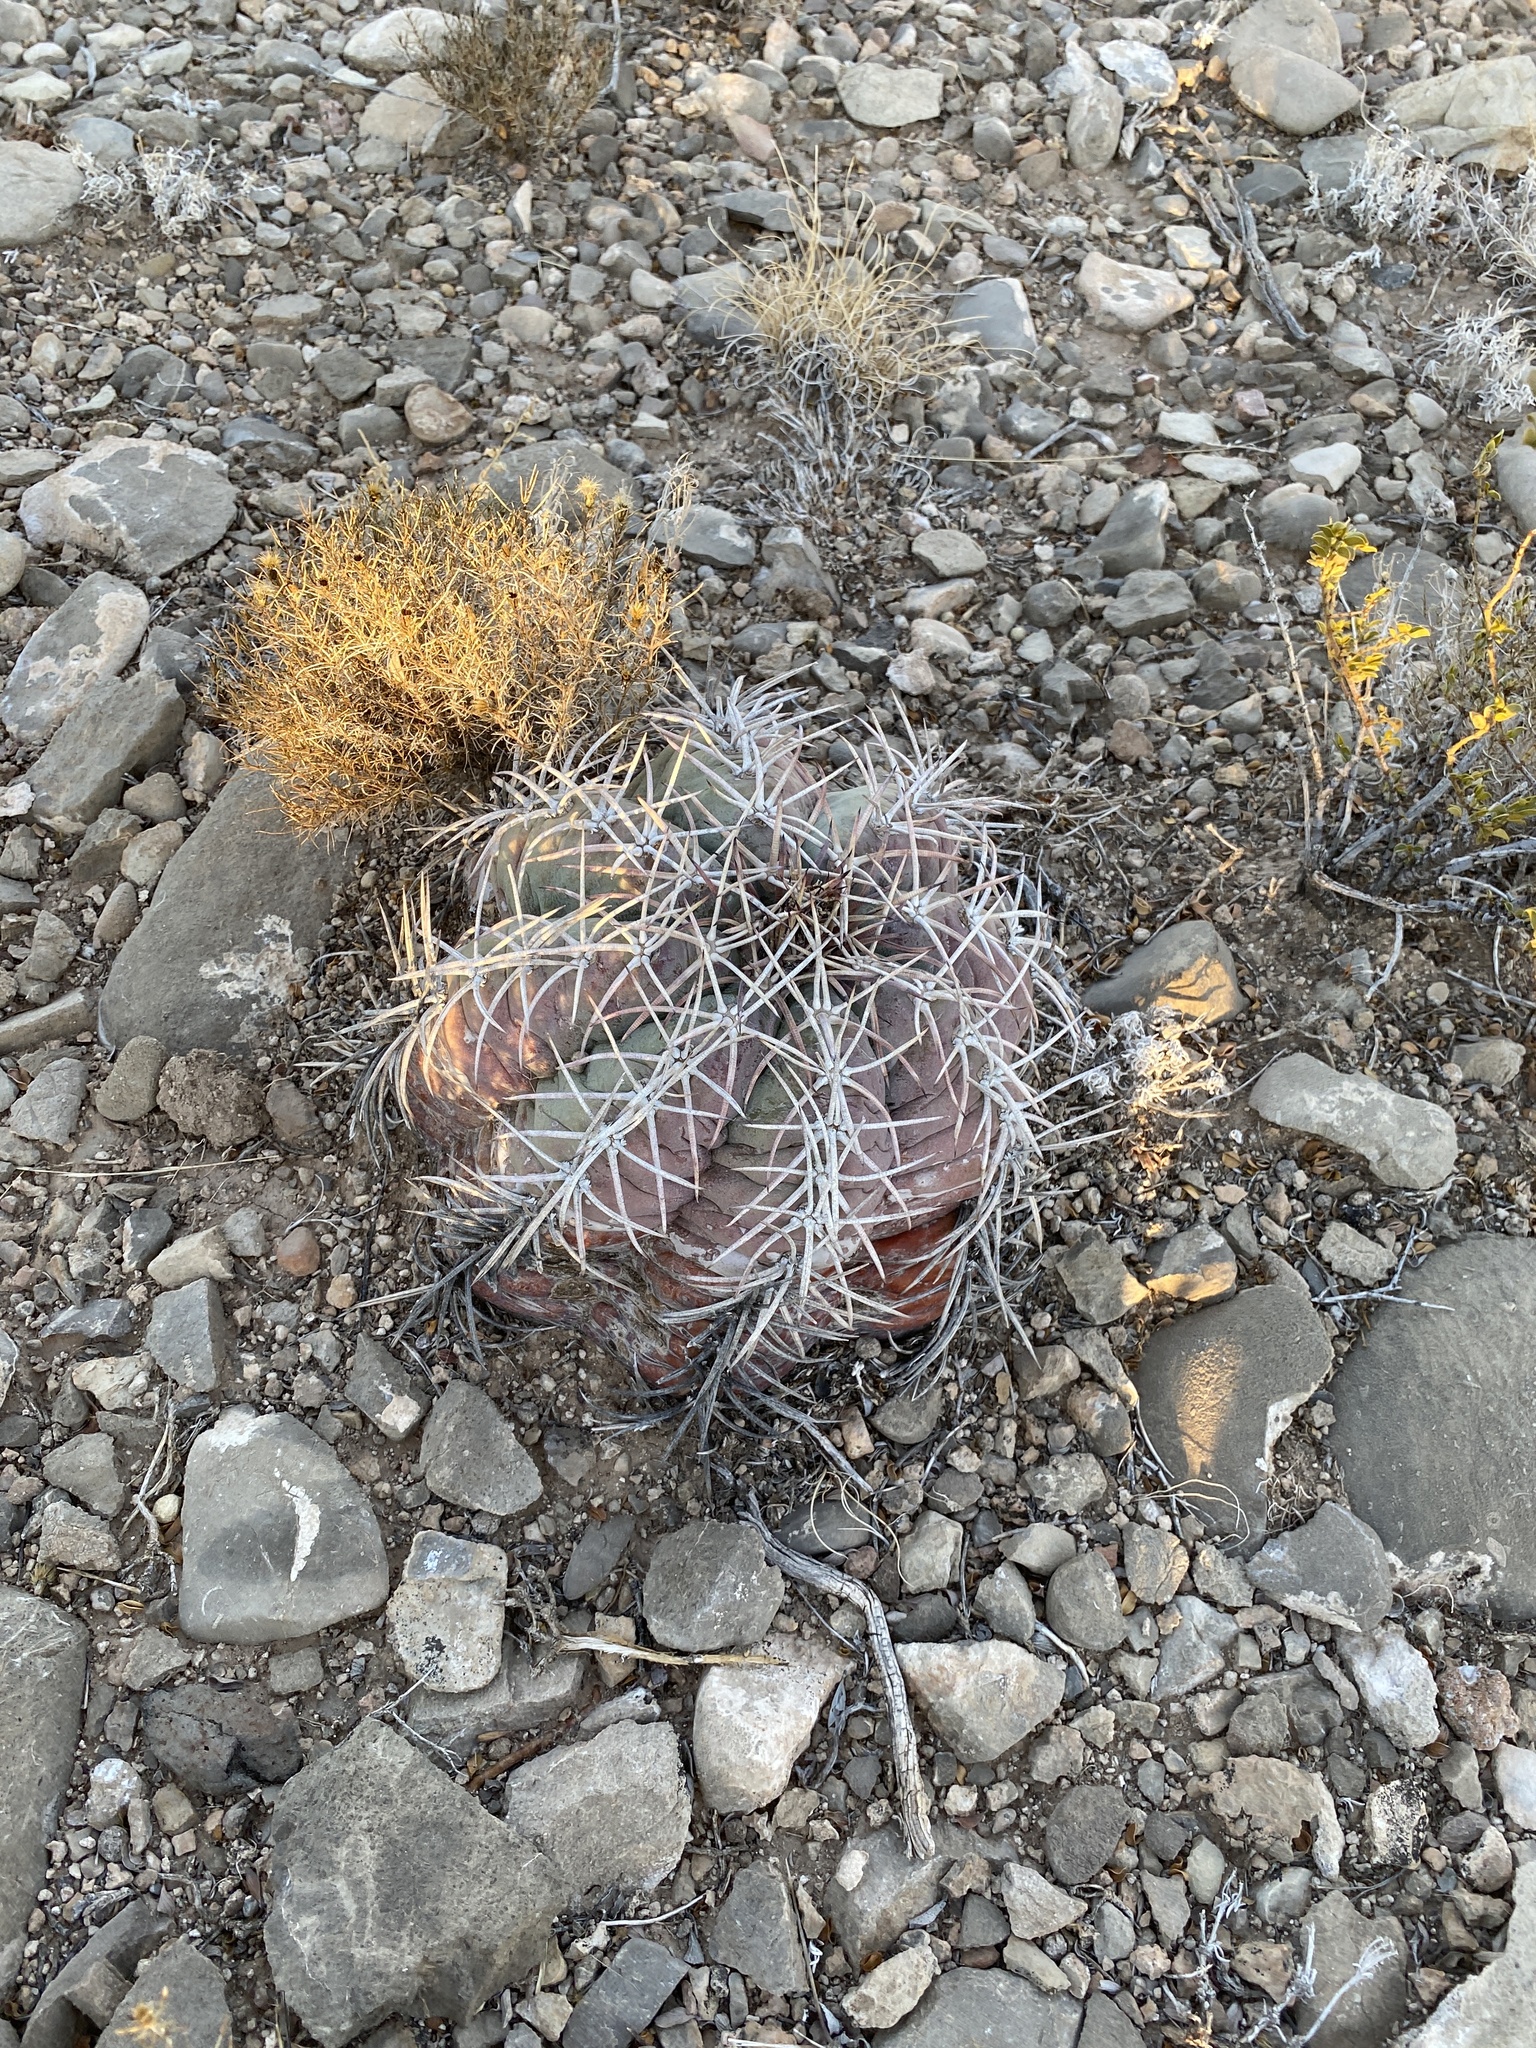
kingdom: Plantae
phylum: Tracheophyta
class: Magnoliopsida
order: Caryophyllales
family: Cactaceae
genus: Echinocactus
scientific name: Echinocactus horizonthalonius
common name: Devilshead
